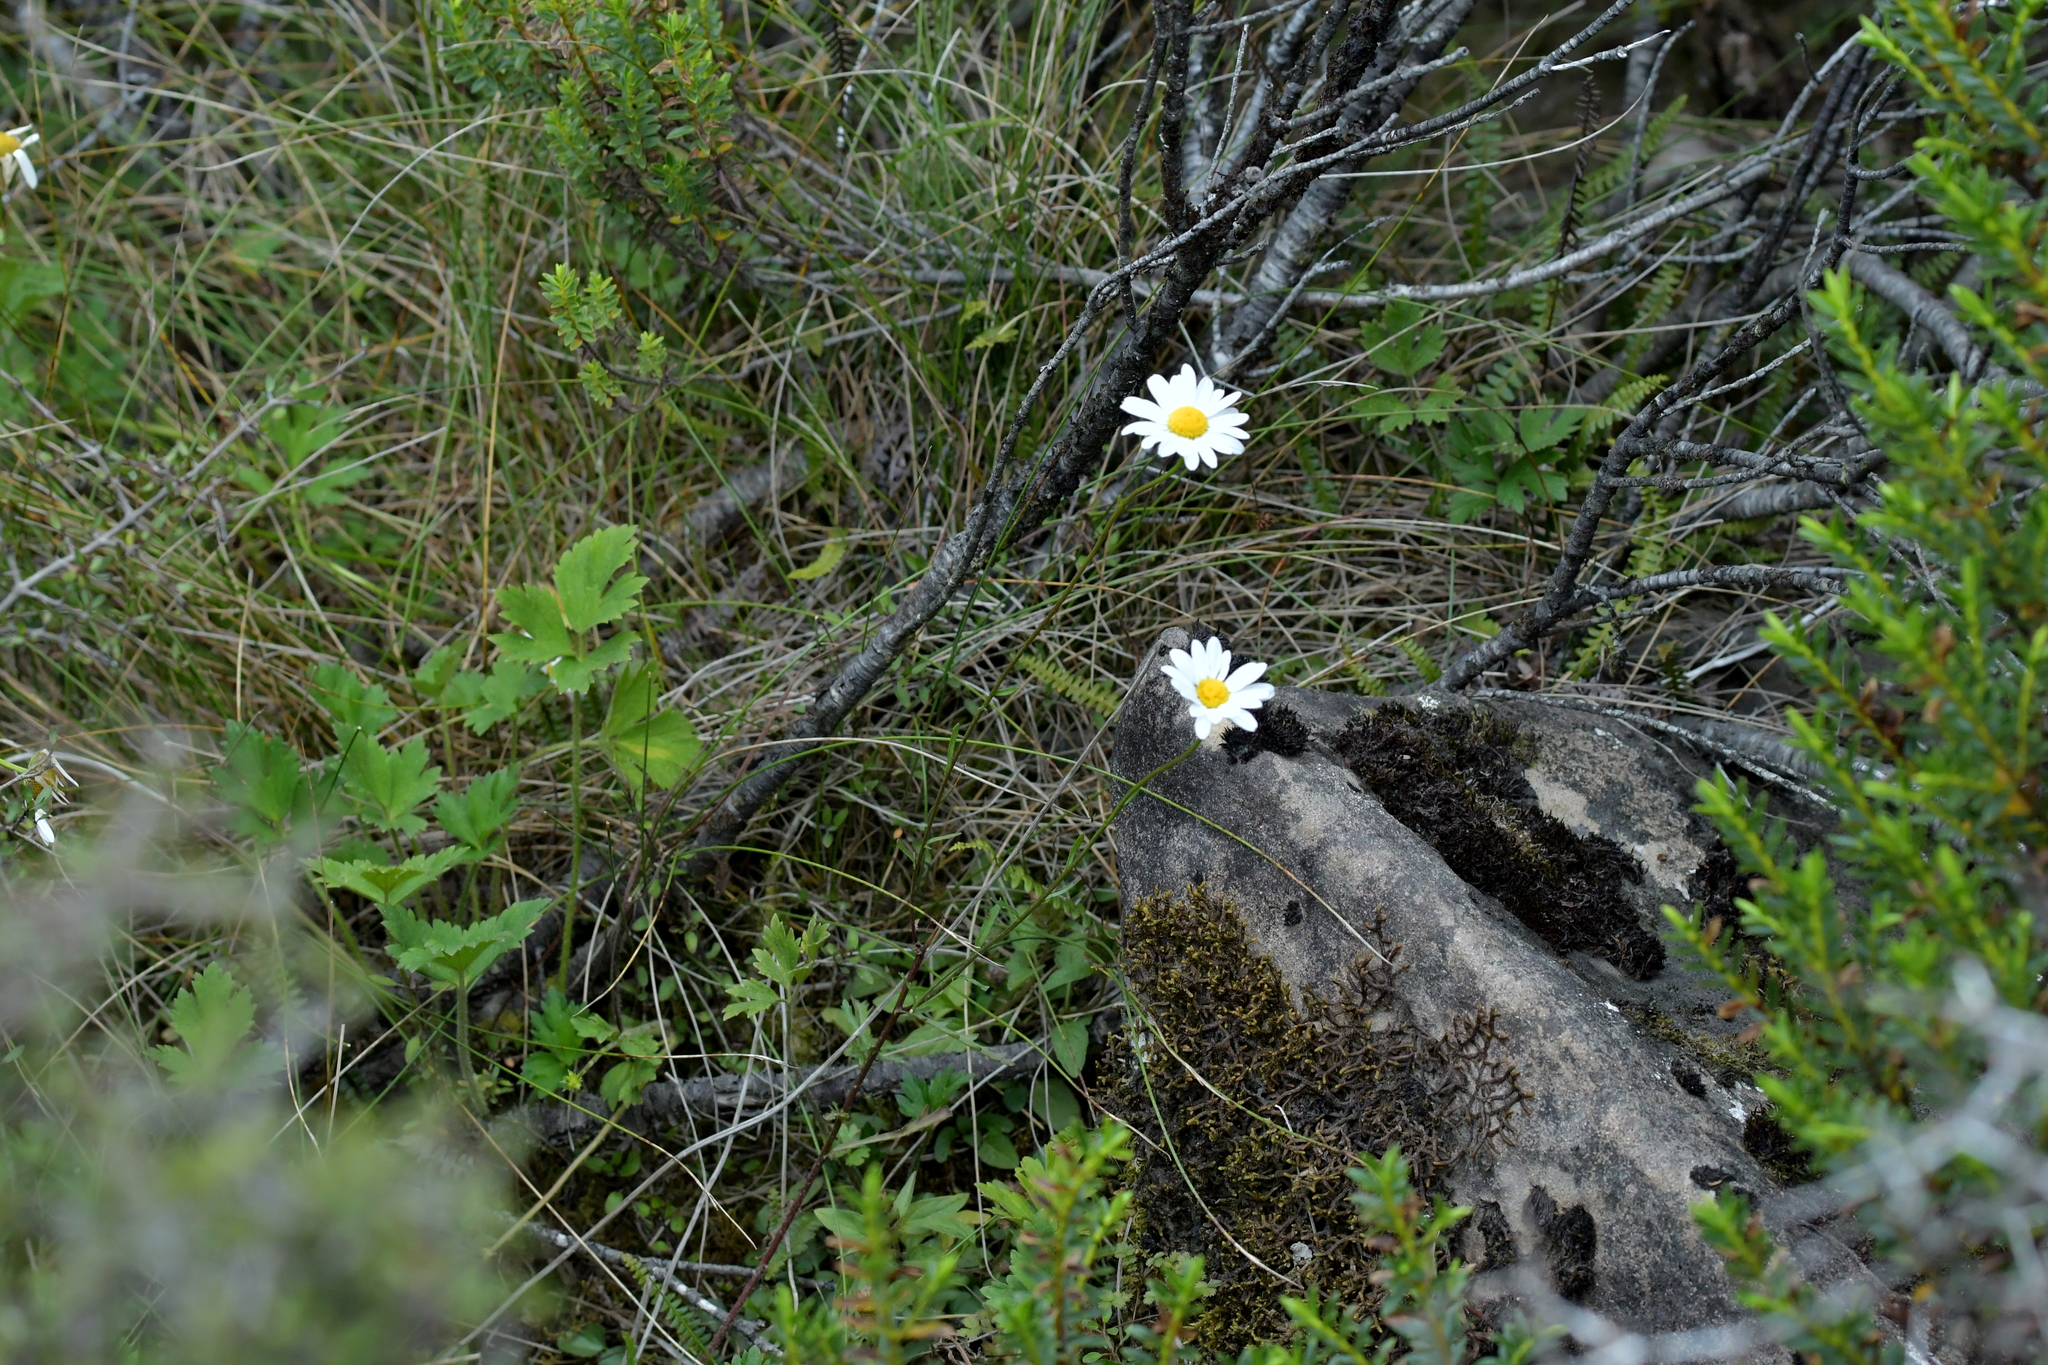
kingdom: Plantae
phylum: Tracheophyta
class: Magnoliopsida
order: Asterales
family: Asteraceae
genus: Leucanthemum
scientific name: Leucanthemum vulgare
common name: Oxeye daisy
